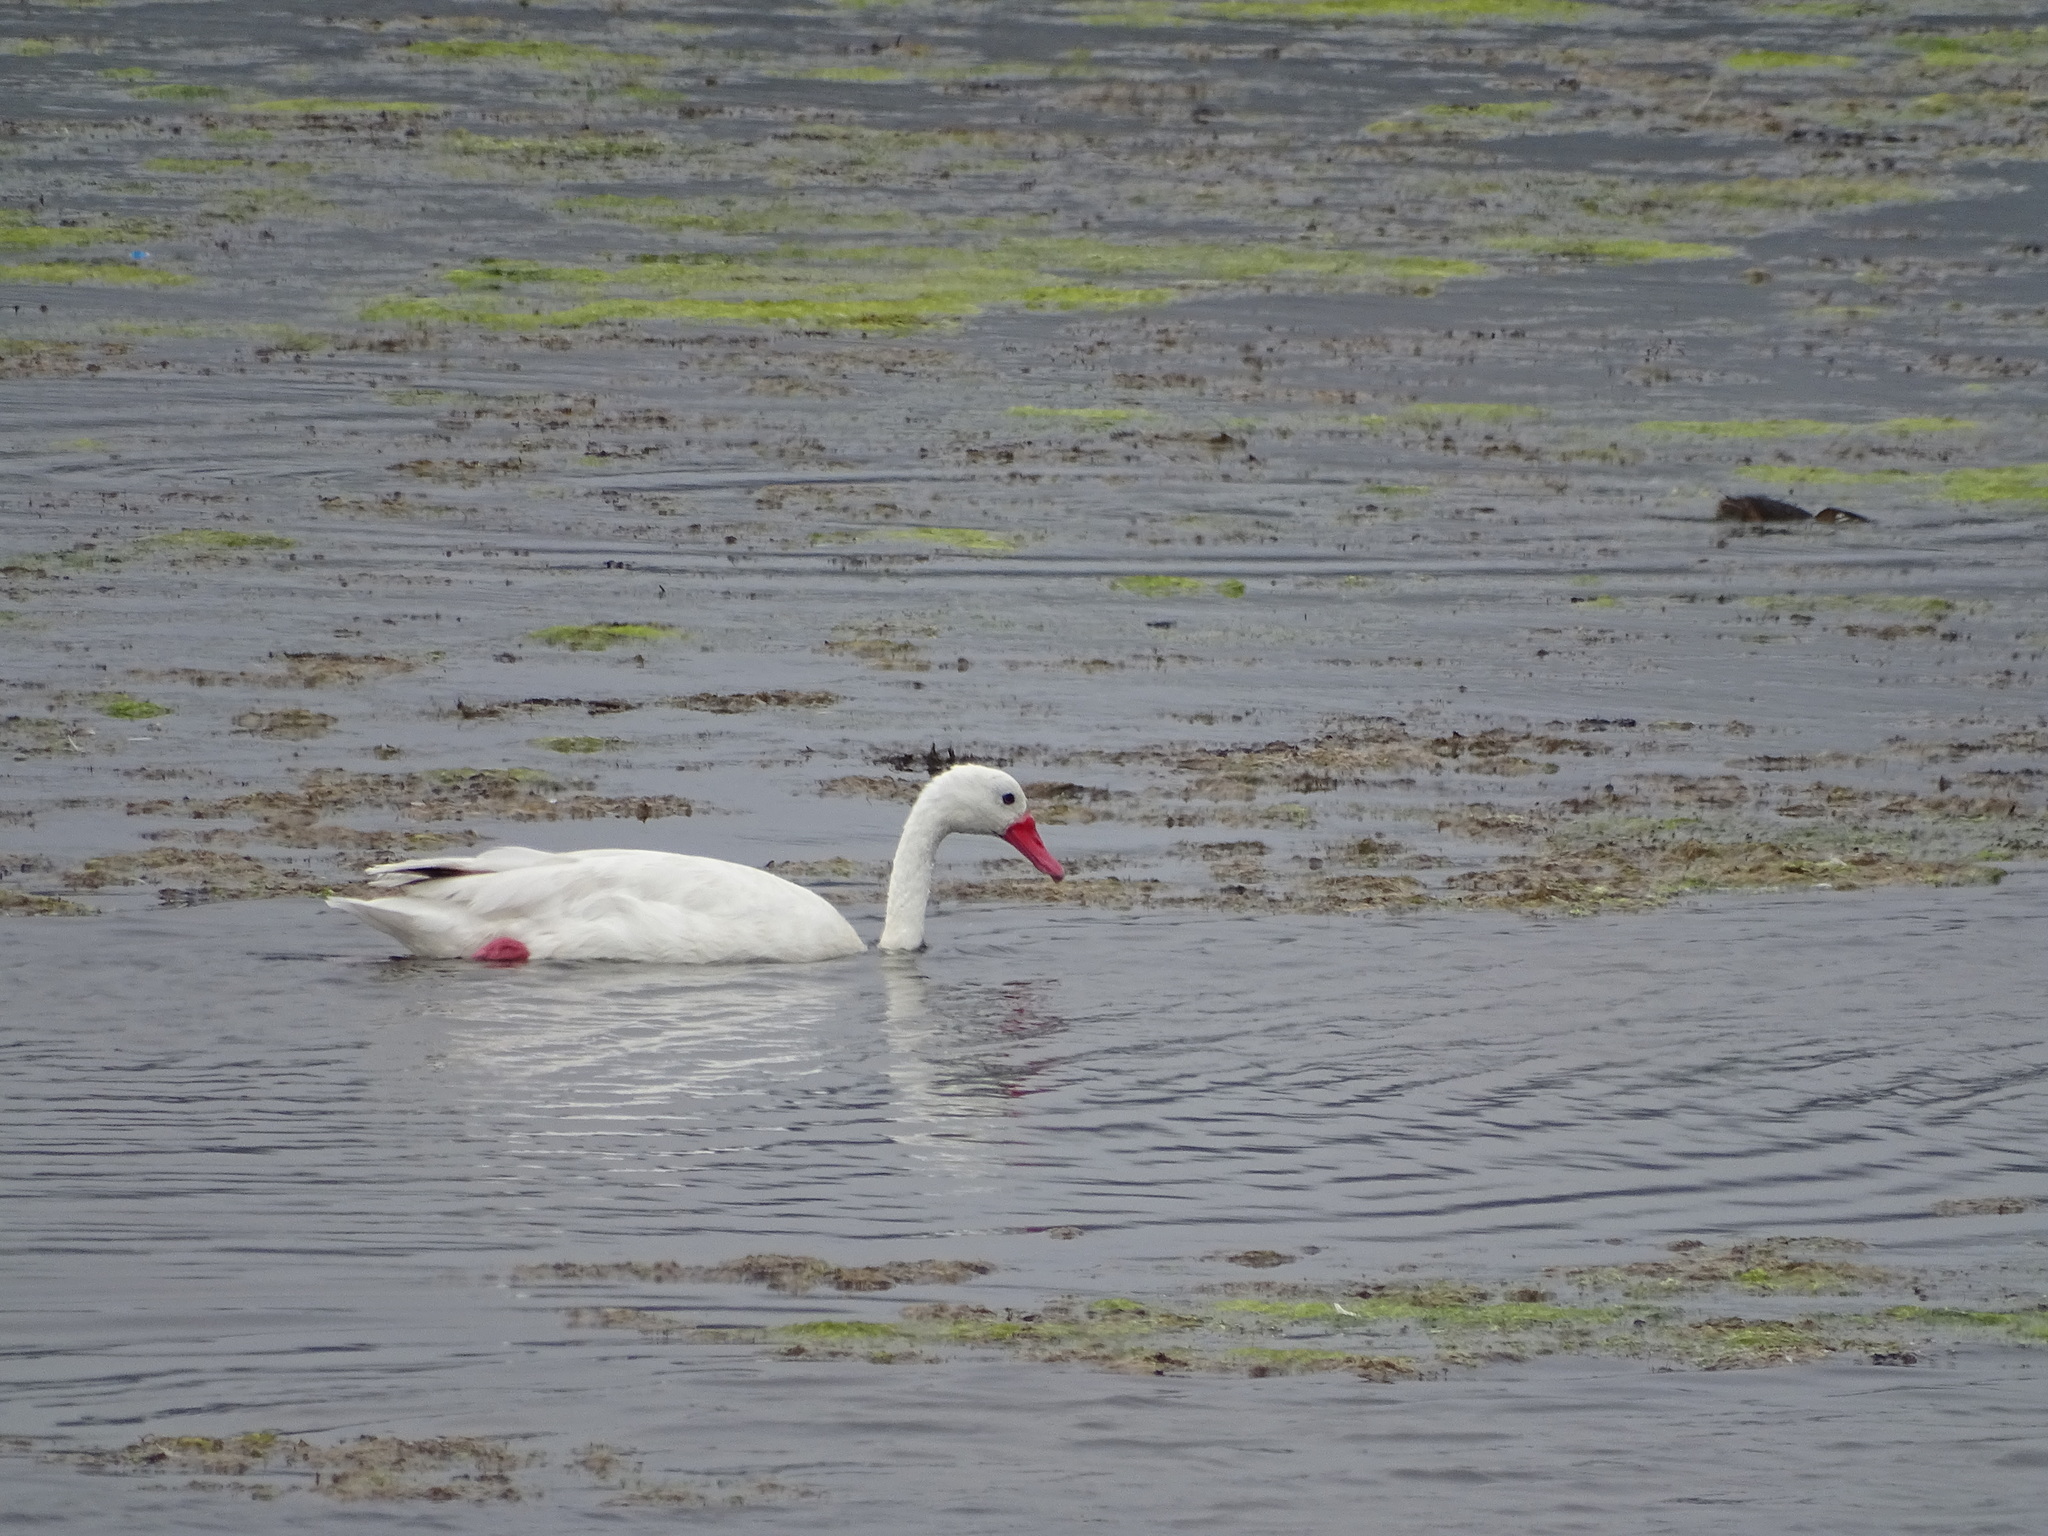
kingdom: Animalia
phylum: Chordata
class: Aves
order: Anseriformes
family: Anatidae
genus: Coscoroba
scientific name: Coscoroba coscoroba
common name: Coscoroba swan
